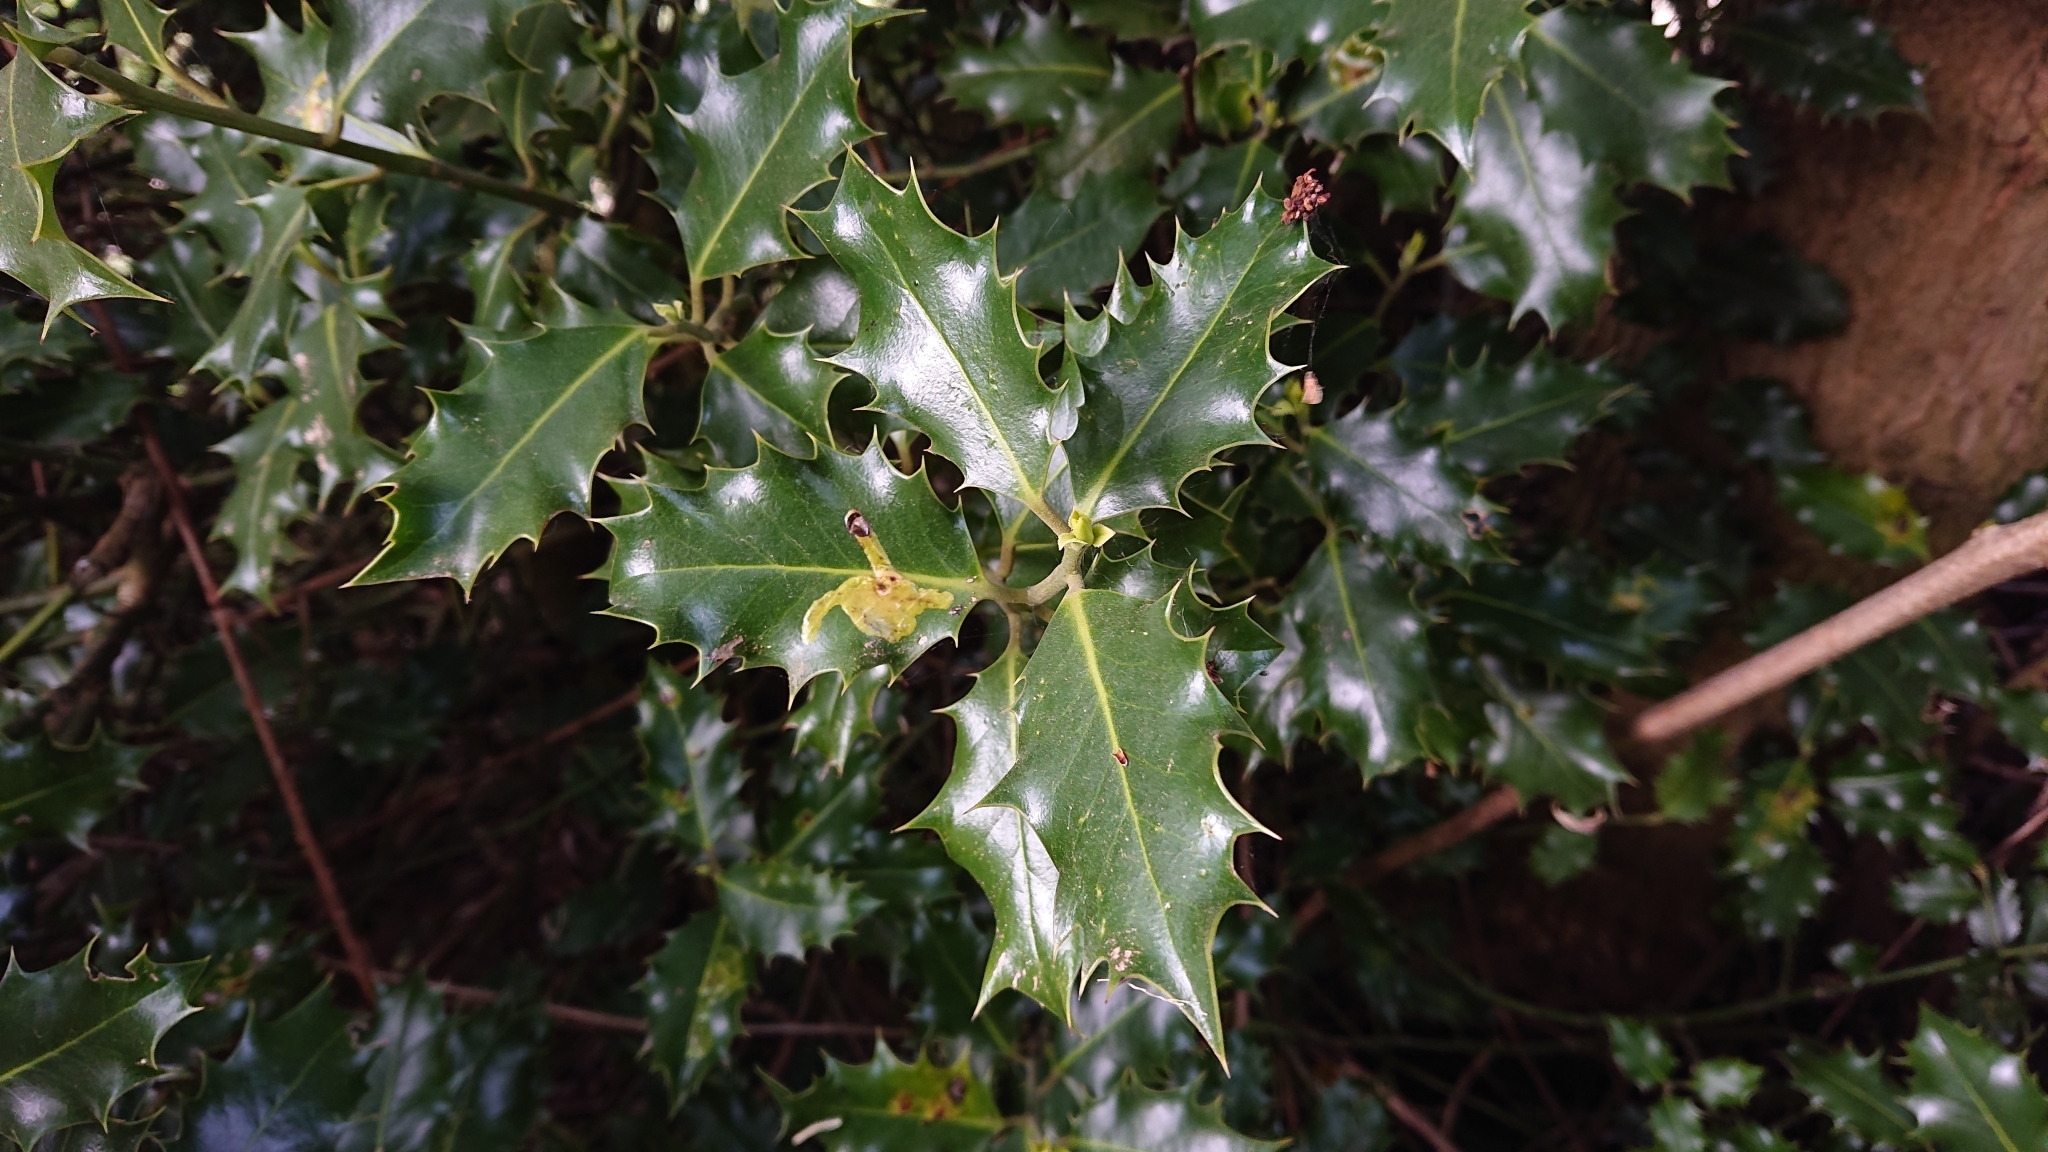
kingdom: Plantae
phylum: Tracheophyta
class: Magnoliopsida
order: Aquifoliales
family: Aquifoliaceae
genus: Ilex
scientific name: Ilex aquifolium
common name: English holly
